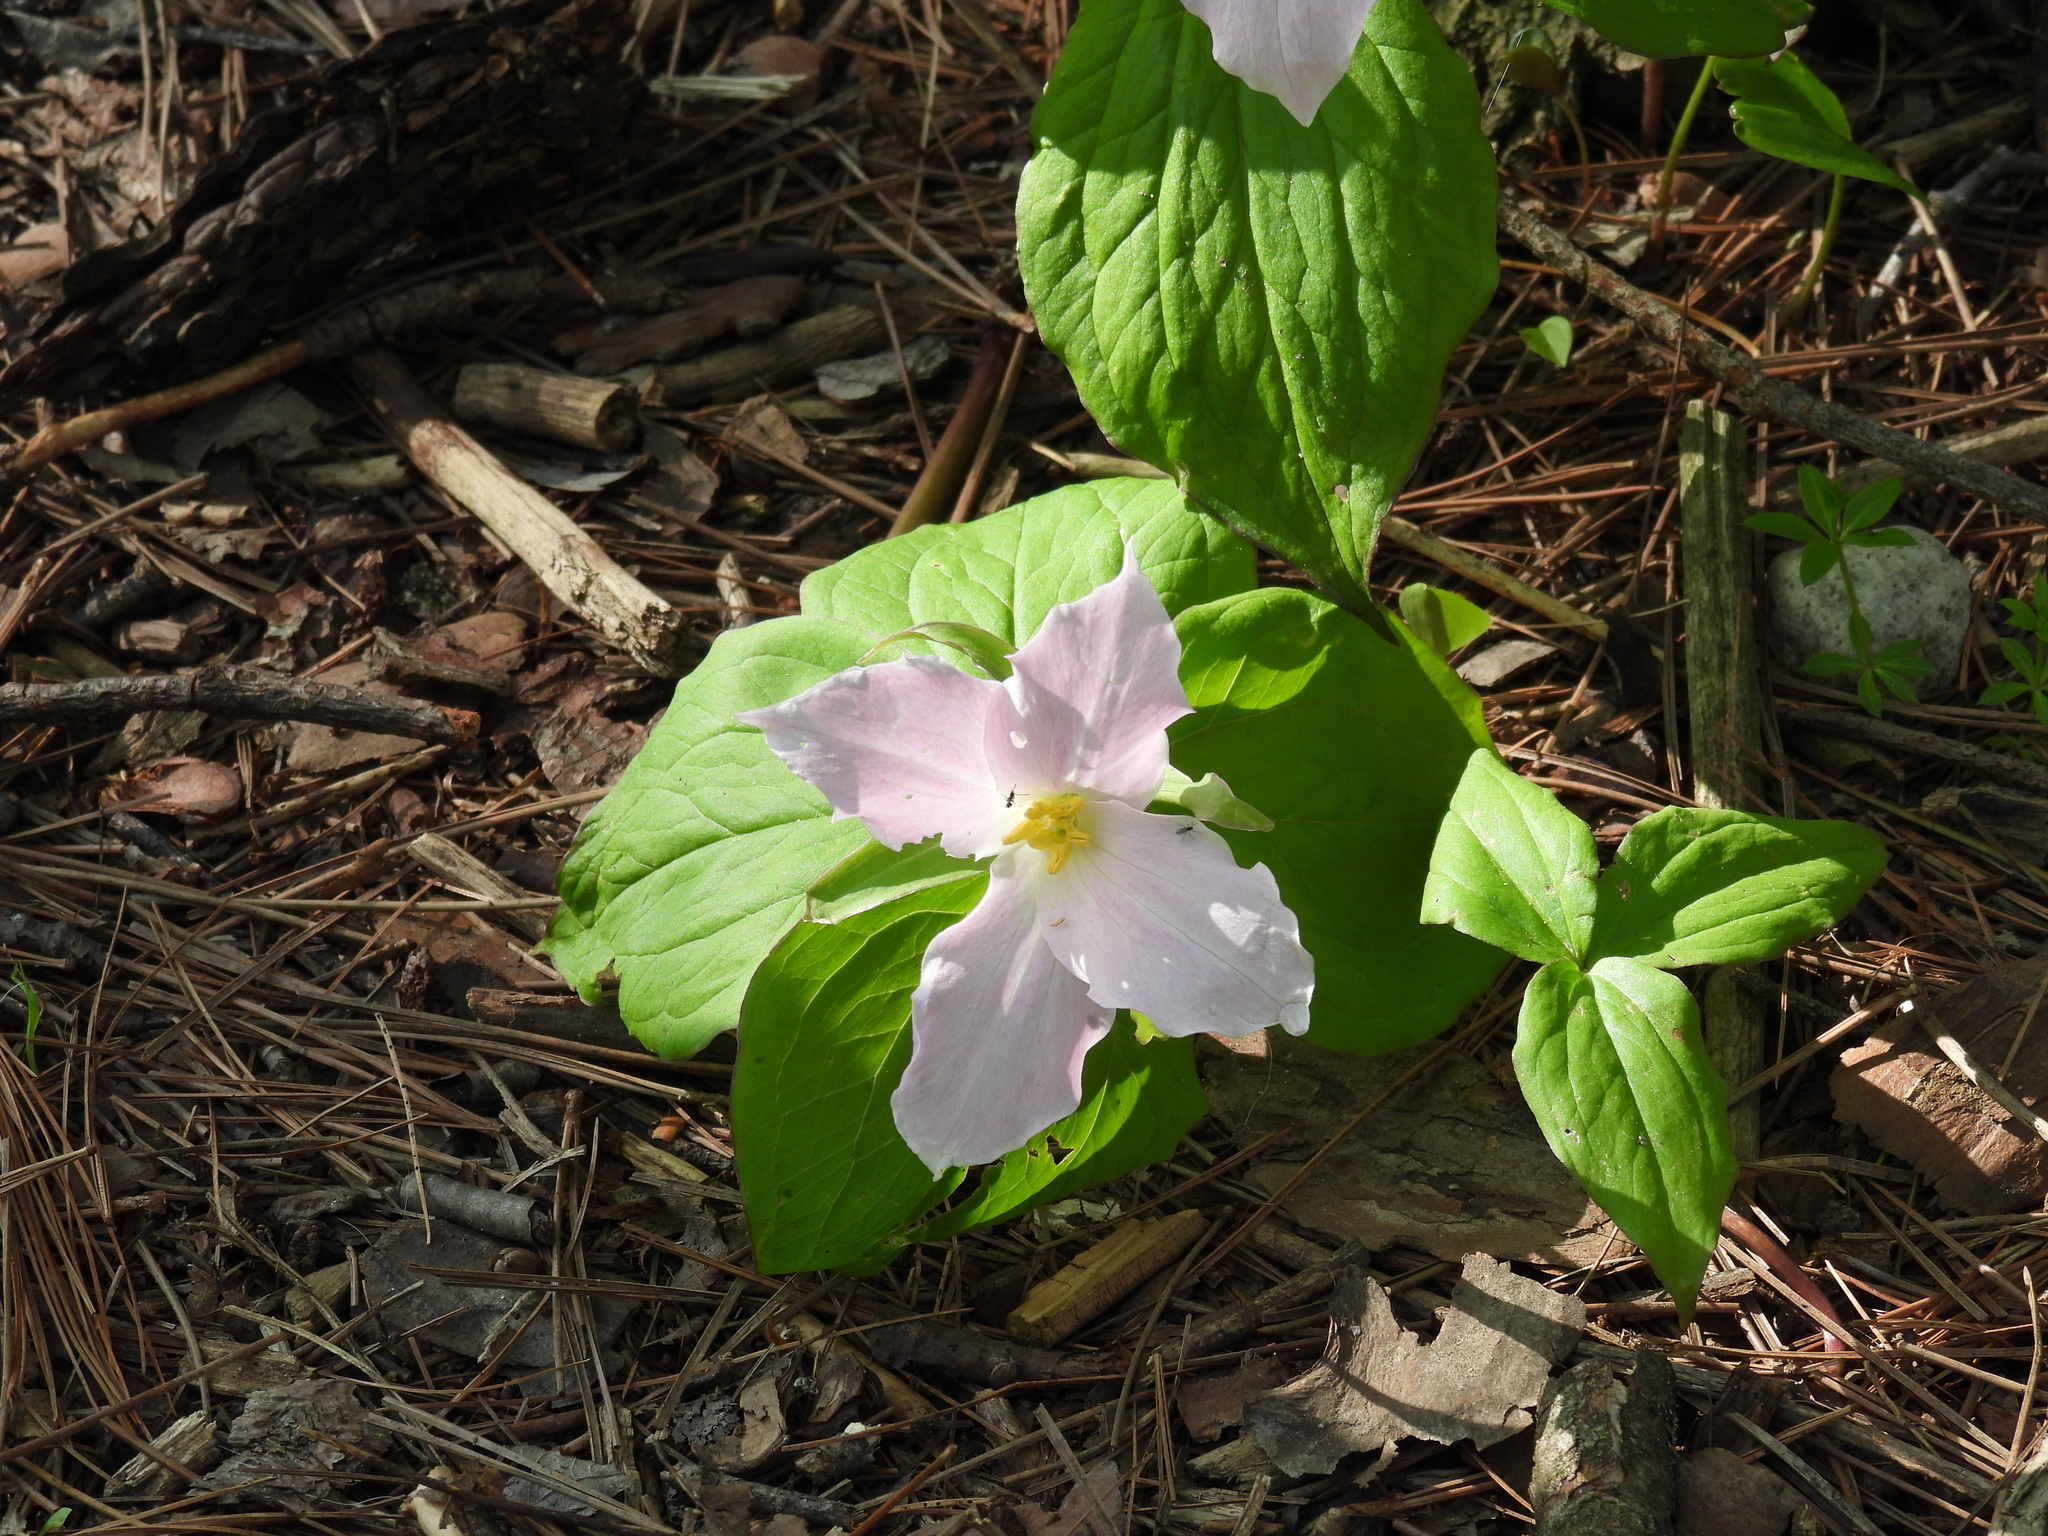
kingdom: Plantae
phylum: Tracheophyta
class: Liliopsida
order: Liliales
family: Melanthiaceae
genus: Trillium
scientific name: Trillium grandiflorum
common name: Great white trillium
